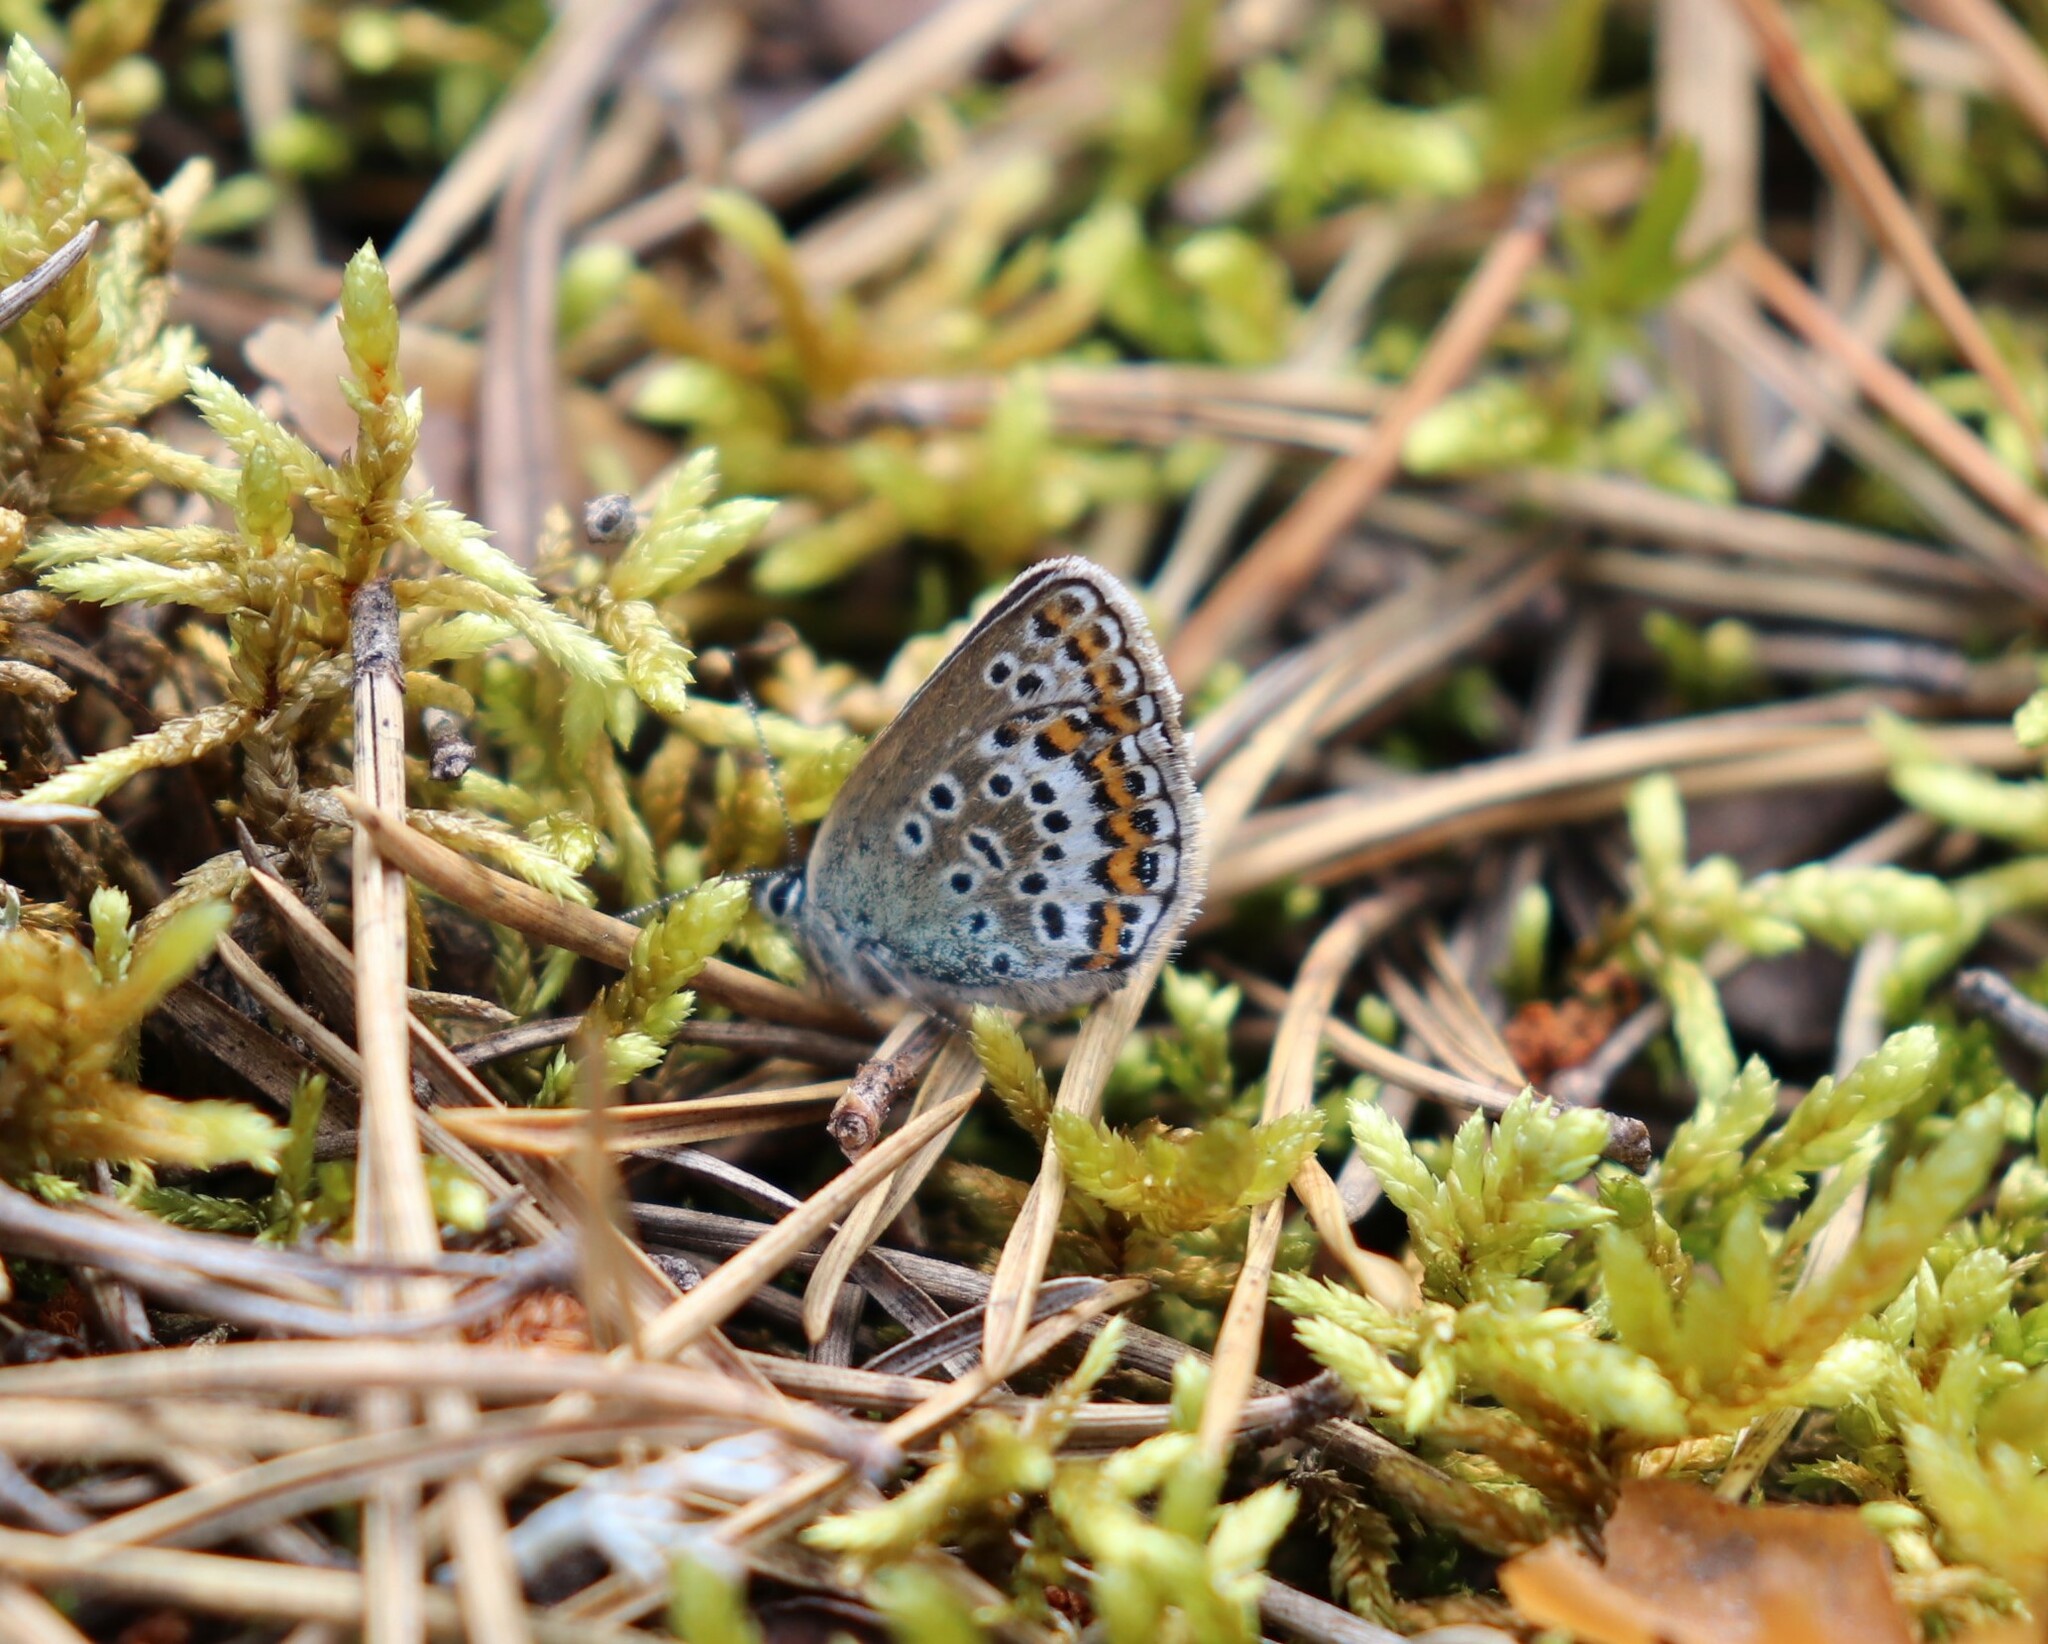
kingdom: Animalia
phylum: Arthropoda
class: Insecta
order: Lepidoptera
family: Lycaenidae
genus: Plebejus
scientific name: Plebejus argus
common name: Silver-studded blue
